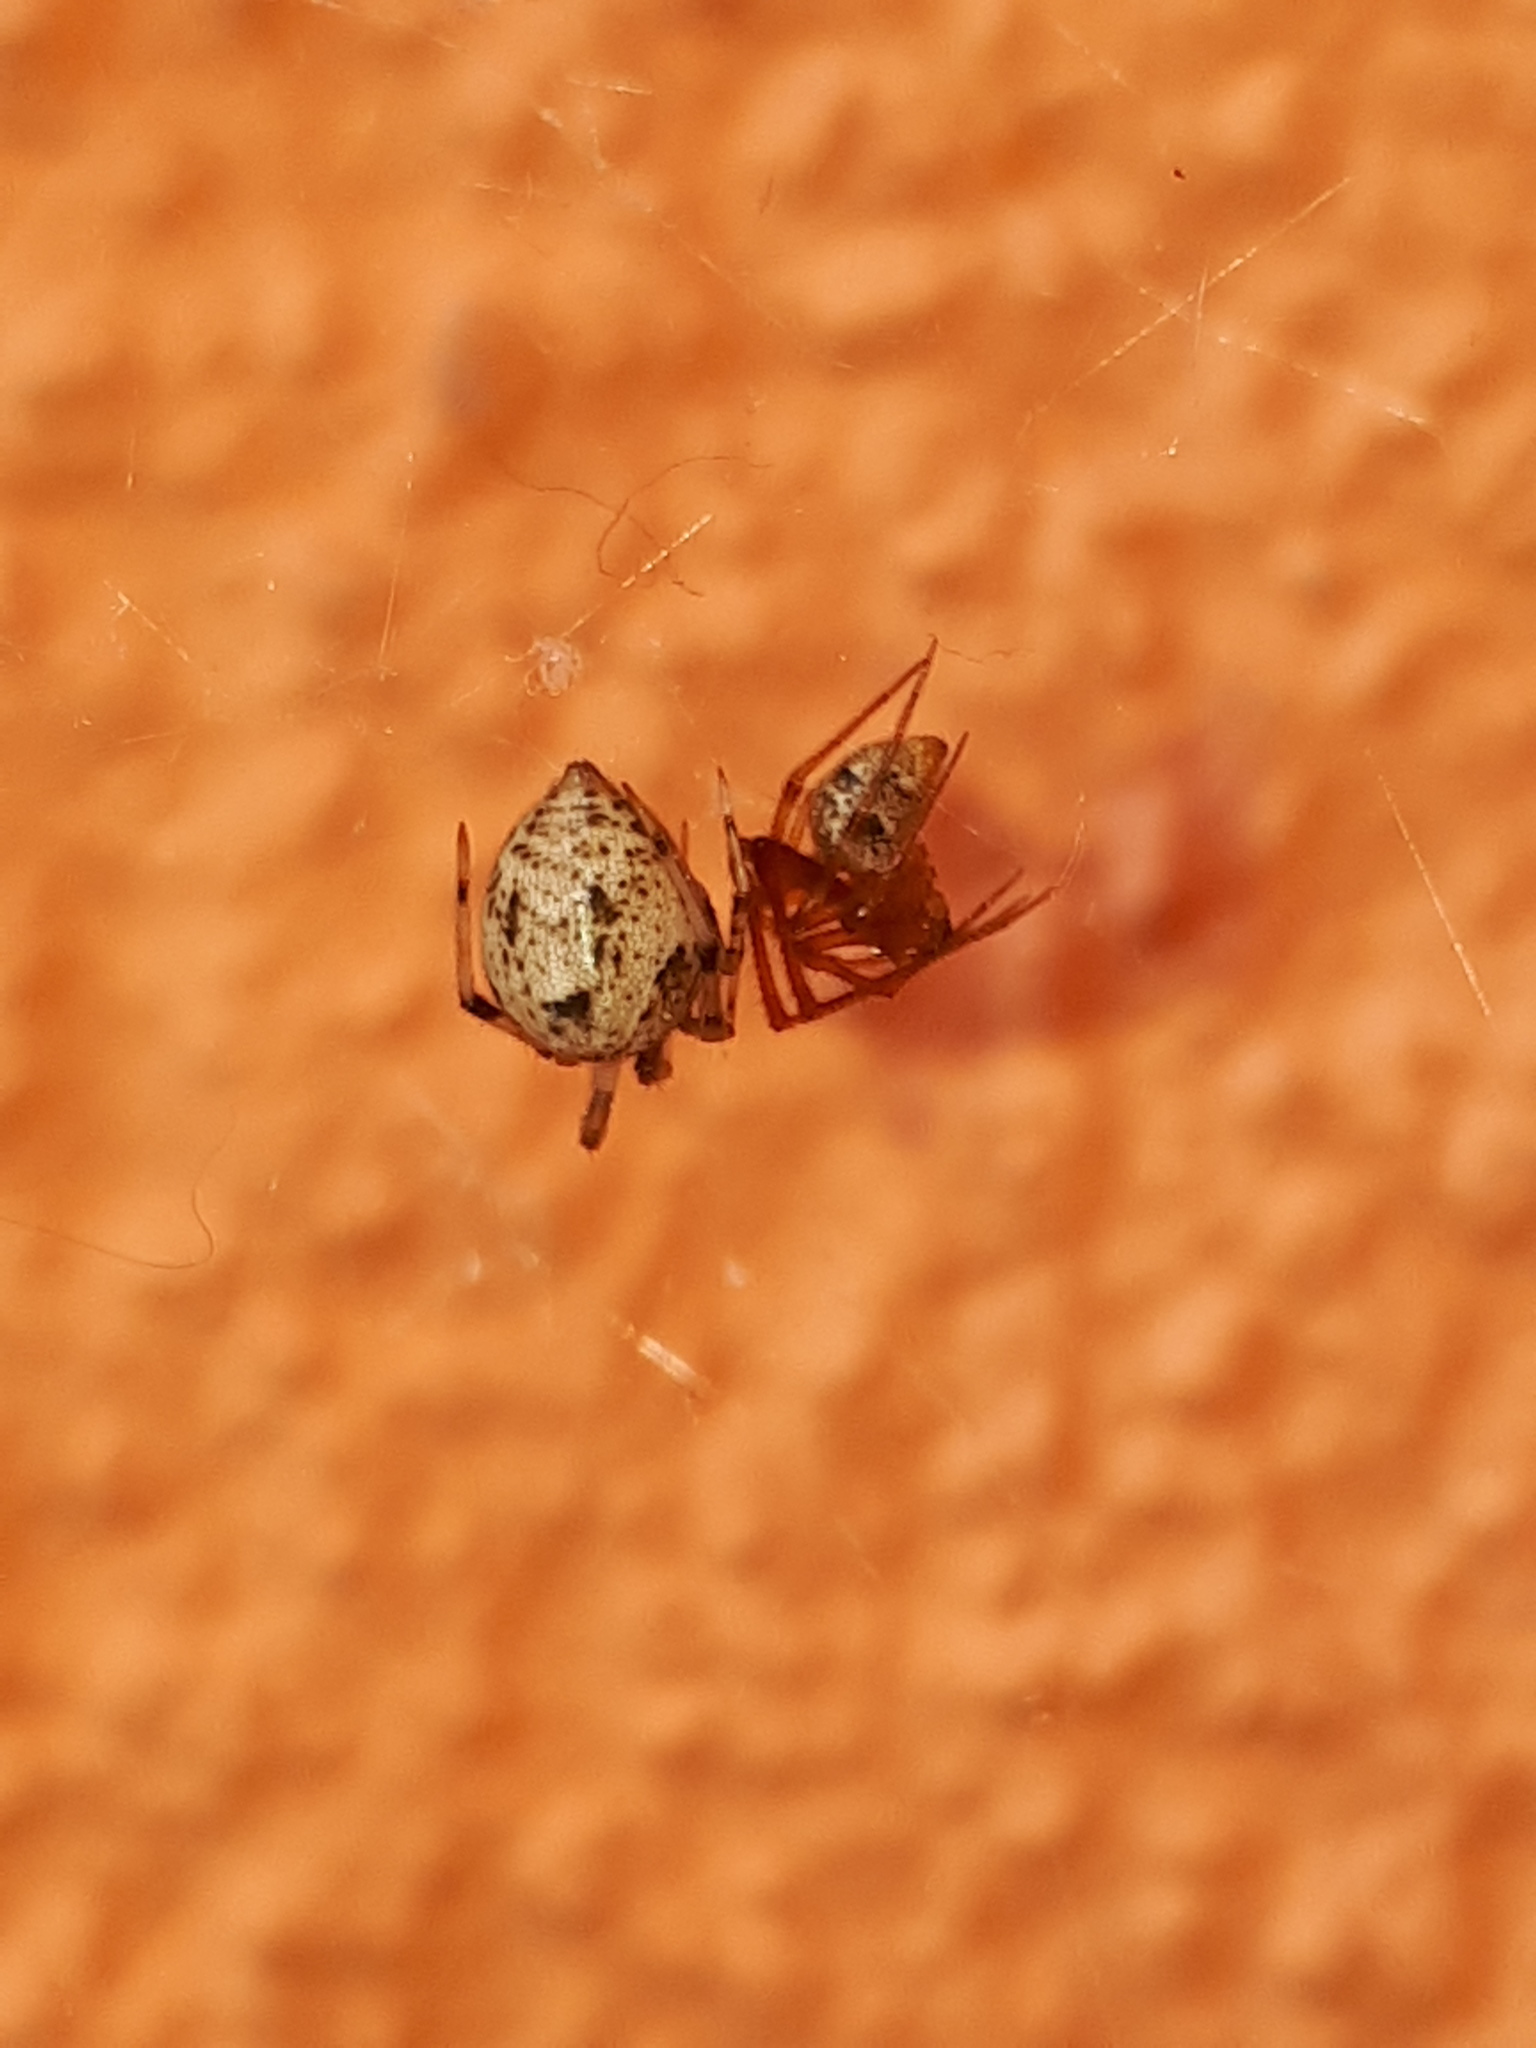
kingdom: Animalia
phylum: Arthropoda
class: Arachnida
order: Araneae
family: Theridiidae
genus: Parasteatoda
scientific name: Parasteatoda tepidariorum
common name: Common house spider
